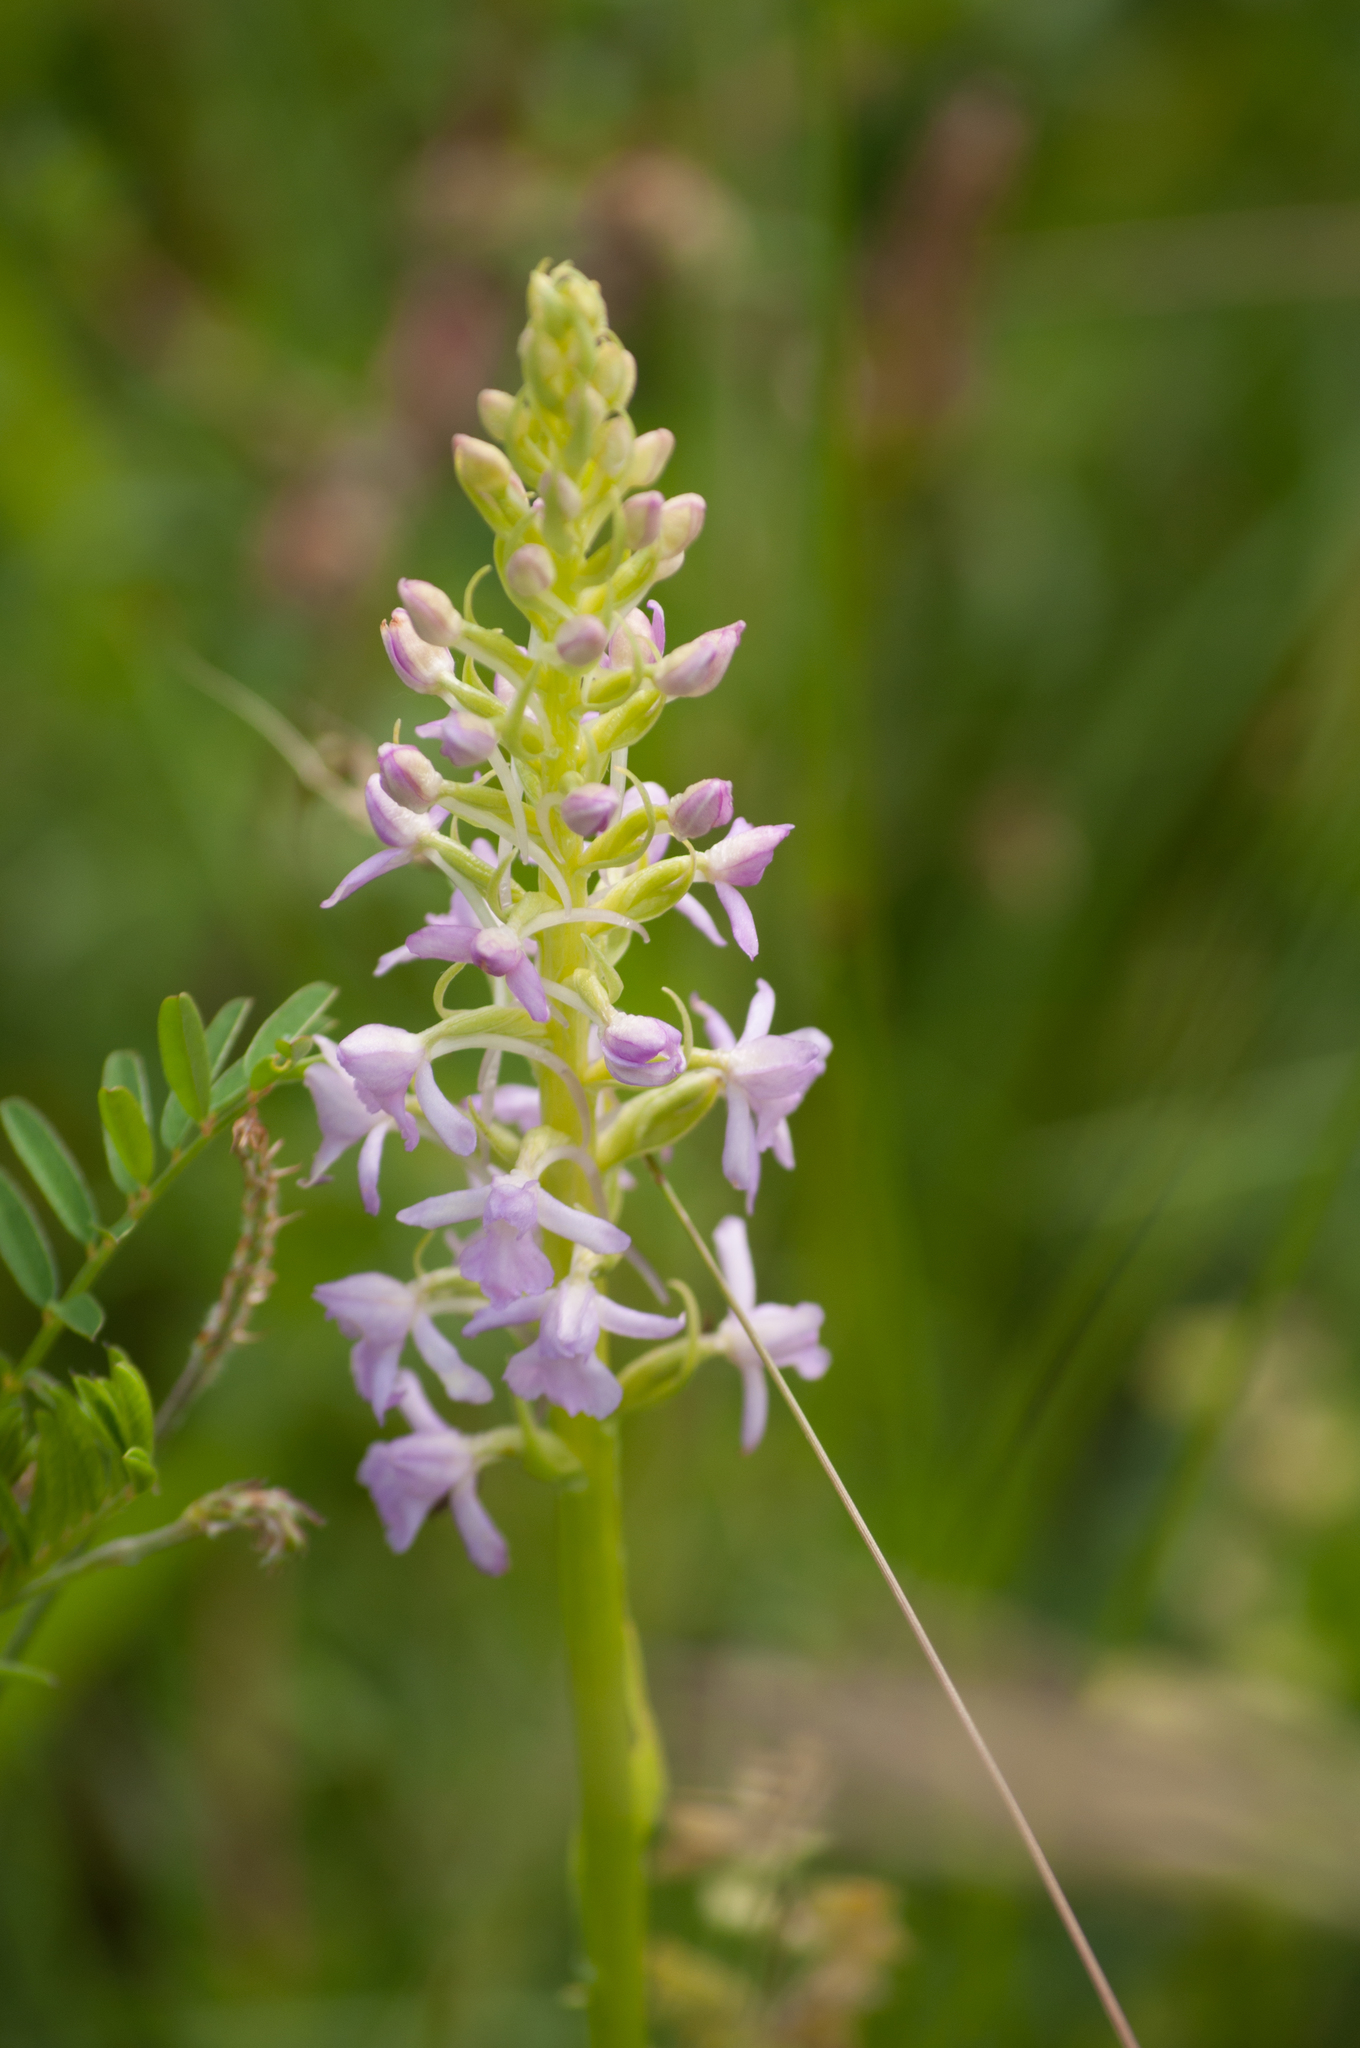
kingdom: Plantae
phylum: Tracheophyta
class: Liliopsida
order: Asparagales
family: Orchidaceae
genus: Gymnadenia
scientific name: Gymnadenia conopsea
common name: Fragrant orchid
